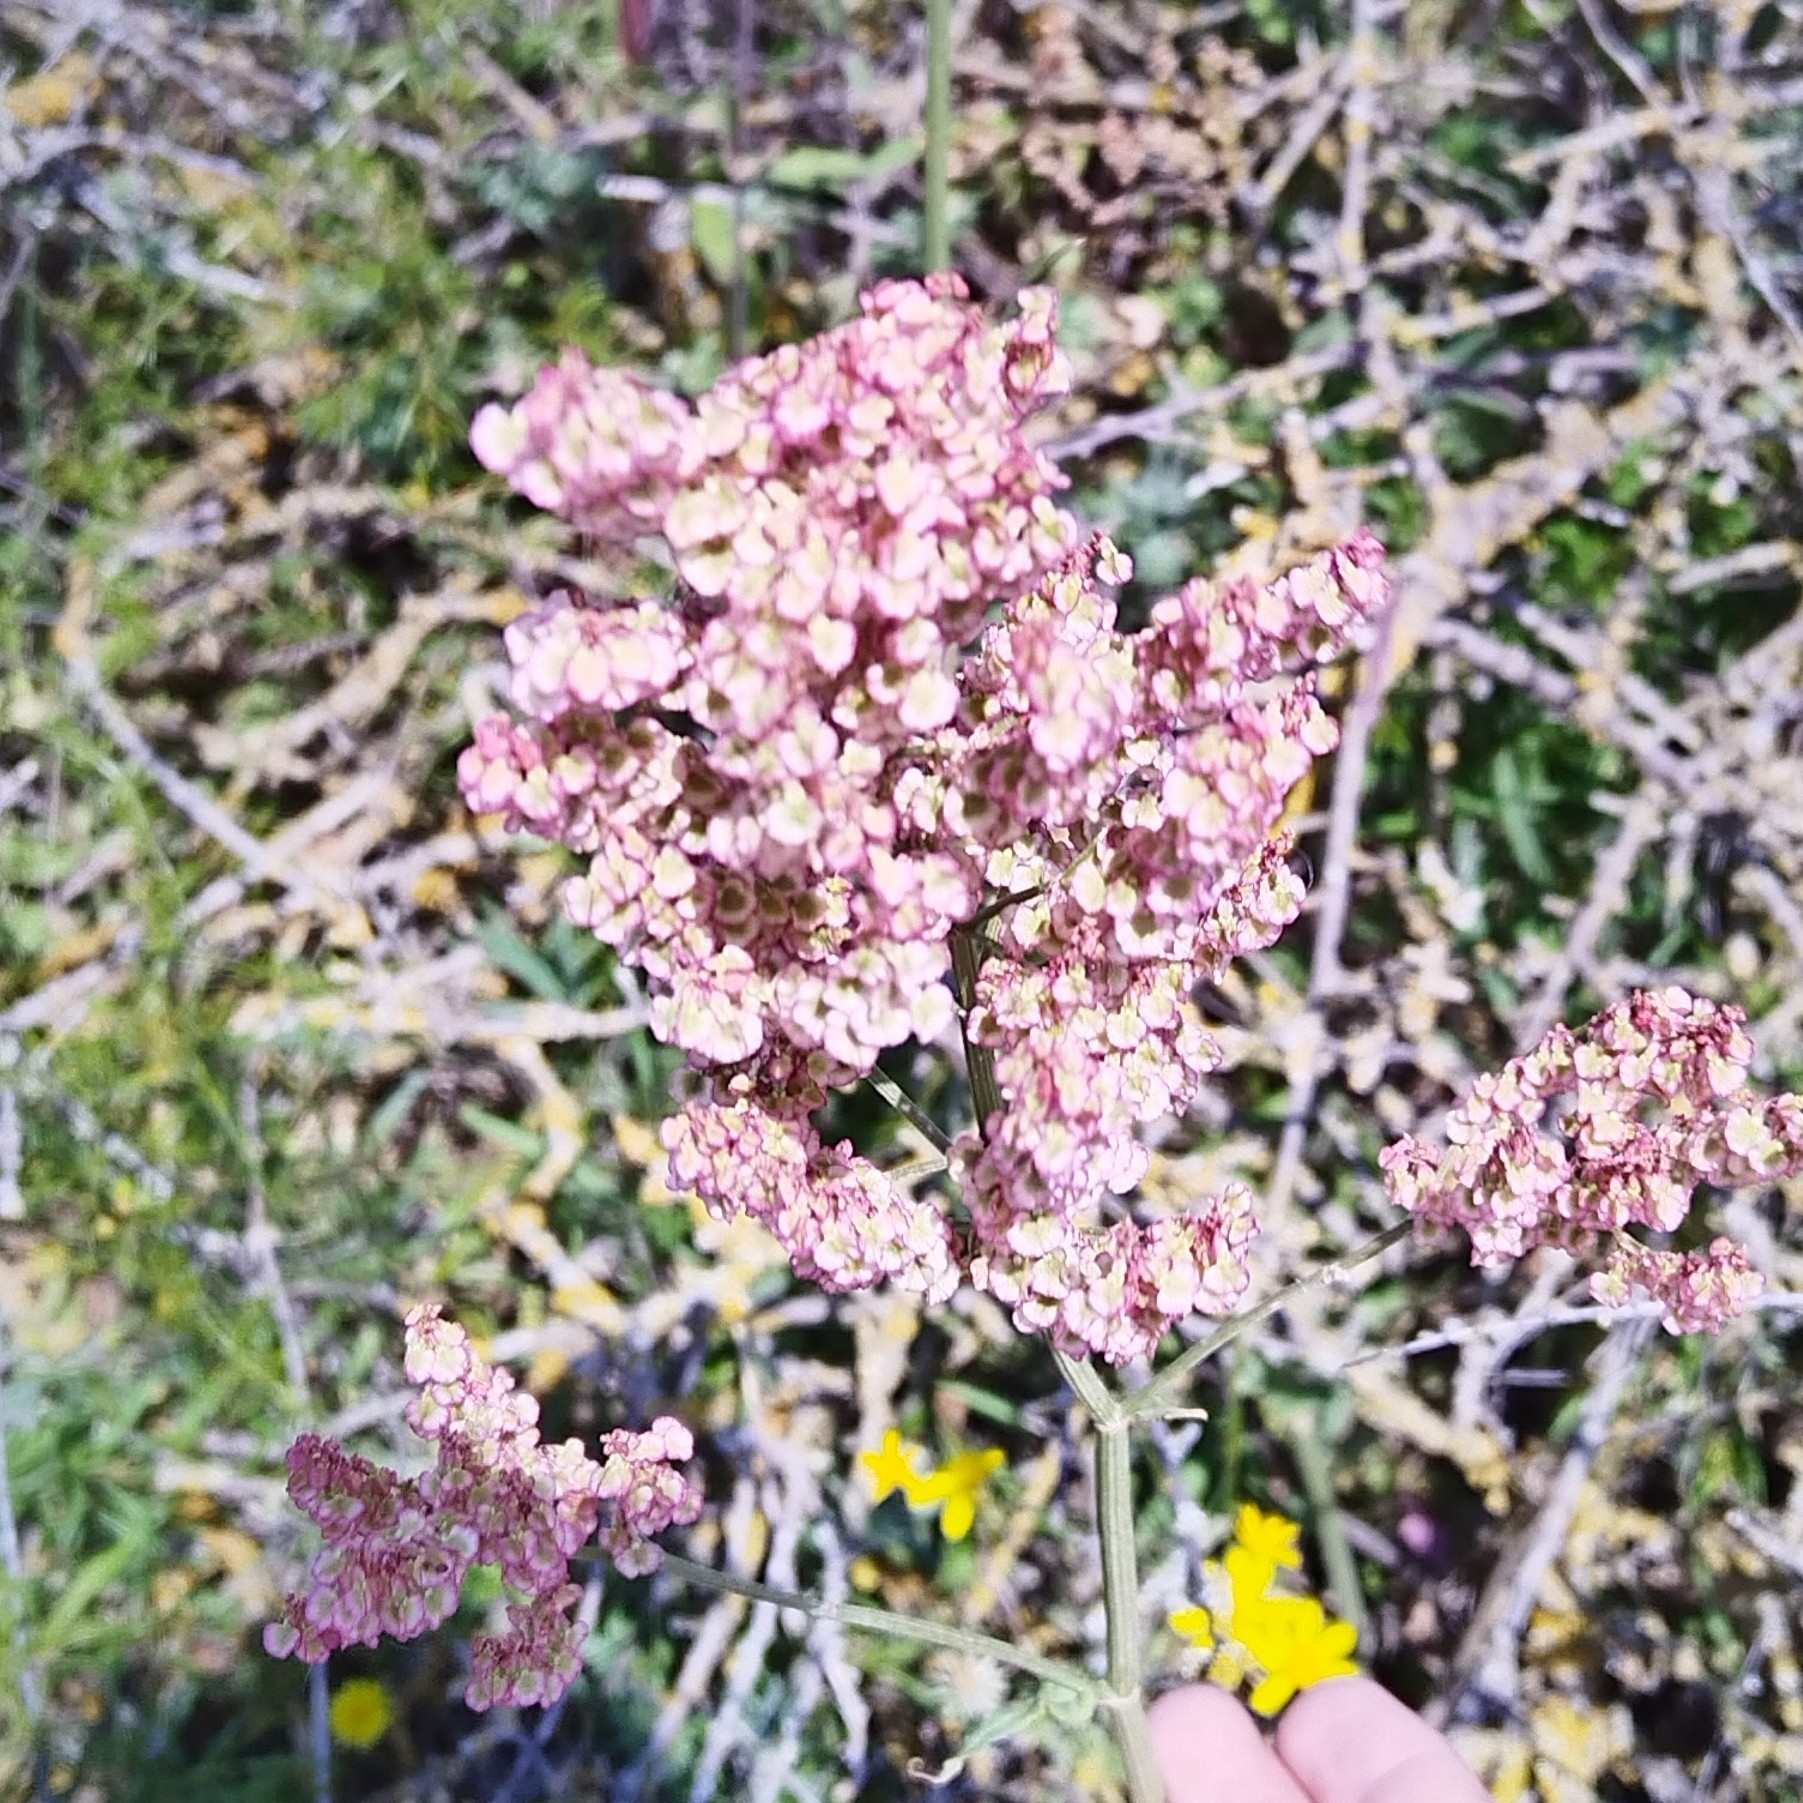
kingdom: Plantae
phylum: Tracheophyta
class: Magnoliopsida
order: Caryophyllales
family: Polygonaceae
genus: Rumex
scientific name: Rumex tuberosus
